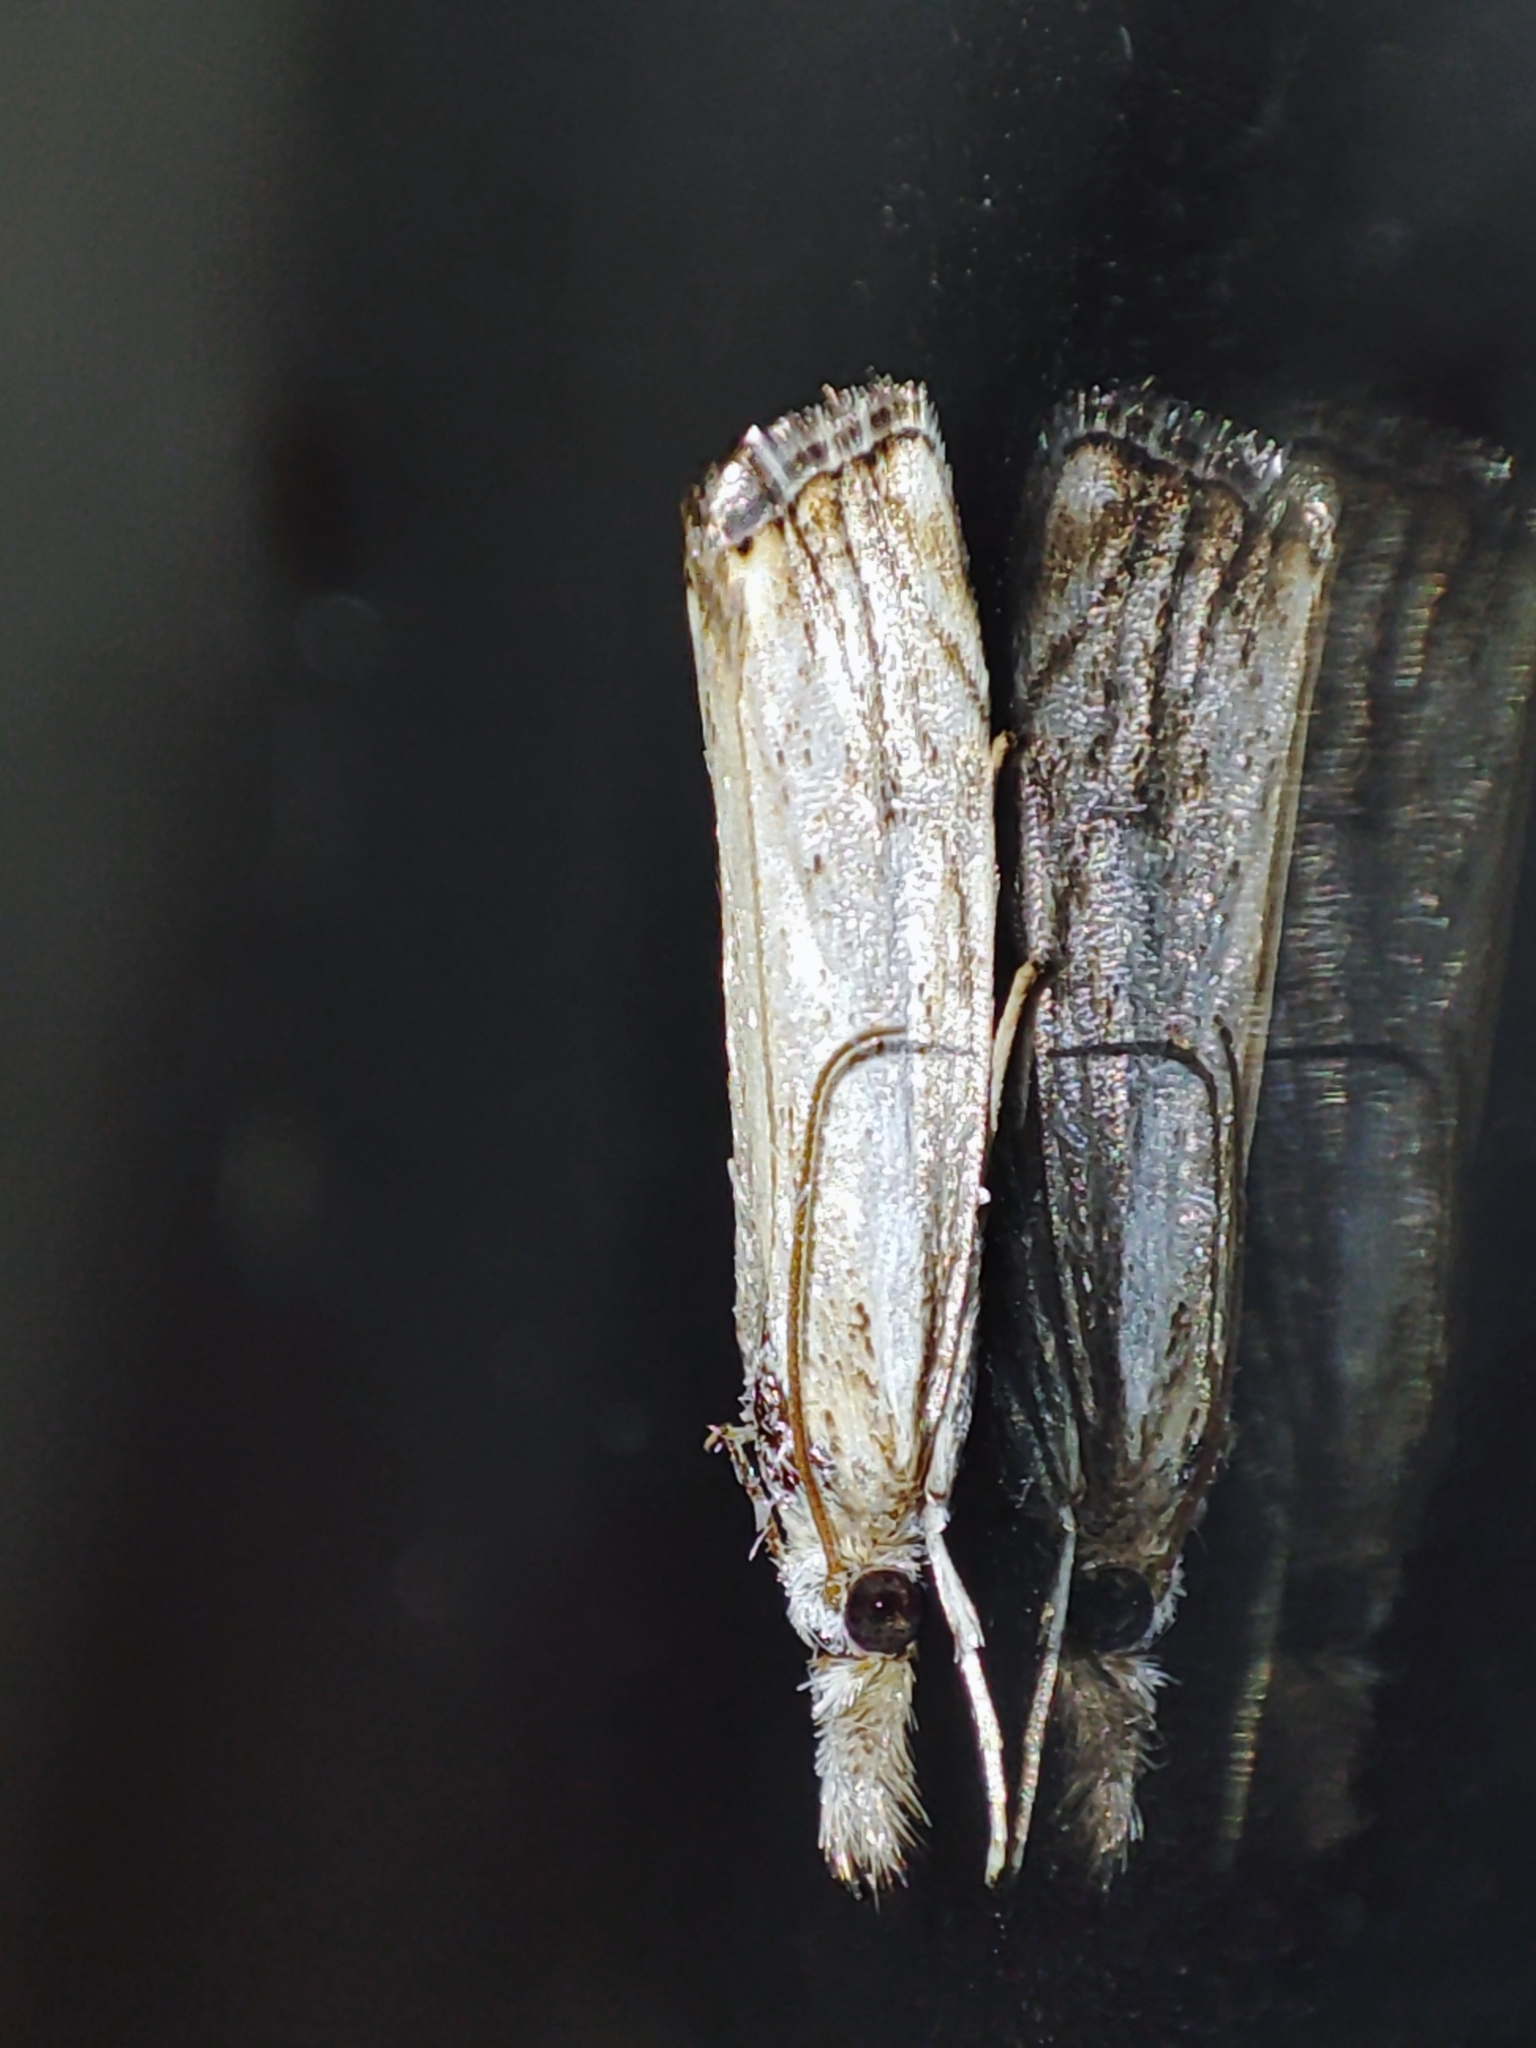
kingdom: Animalia
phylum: Arthropoda
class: Insecta
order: Lepidoptera
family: Crambidae
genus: Catoptria
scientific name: Catoptria falsella
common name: Chequered grass-veneer
